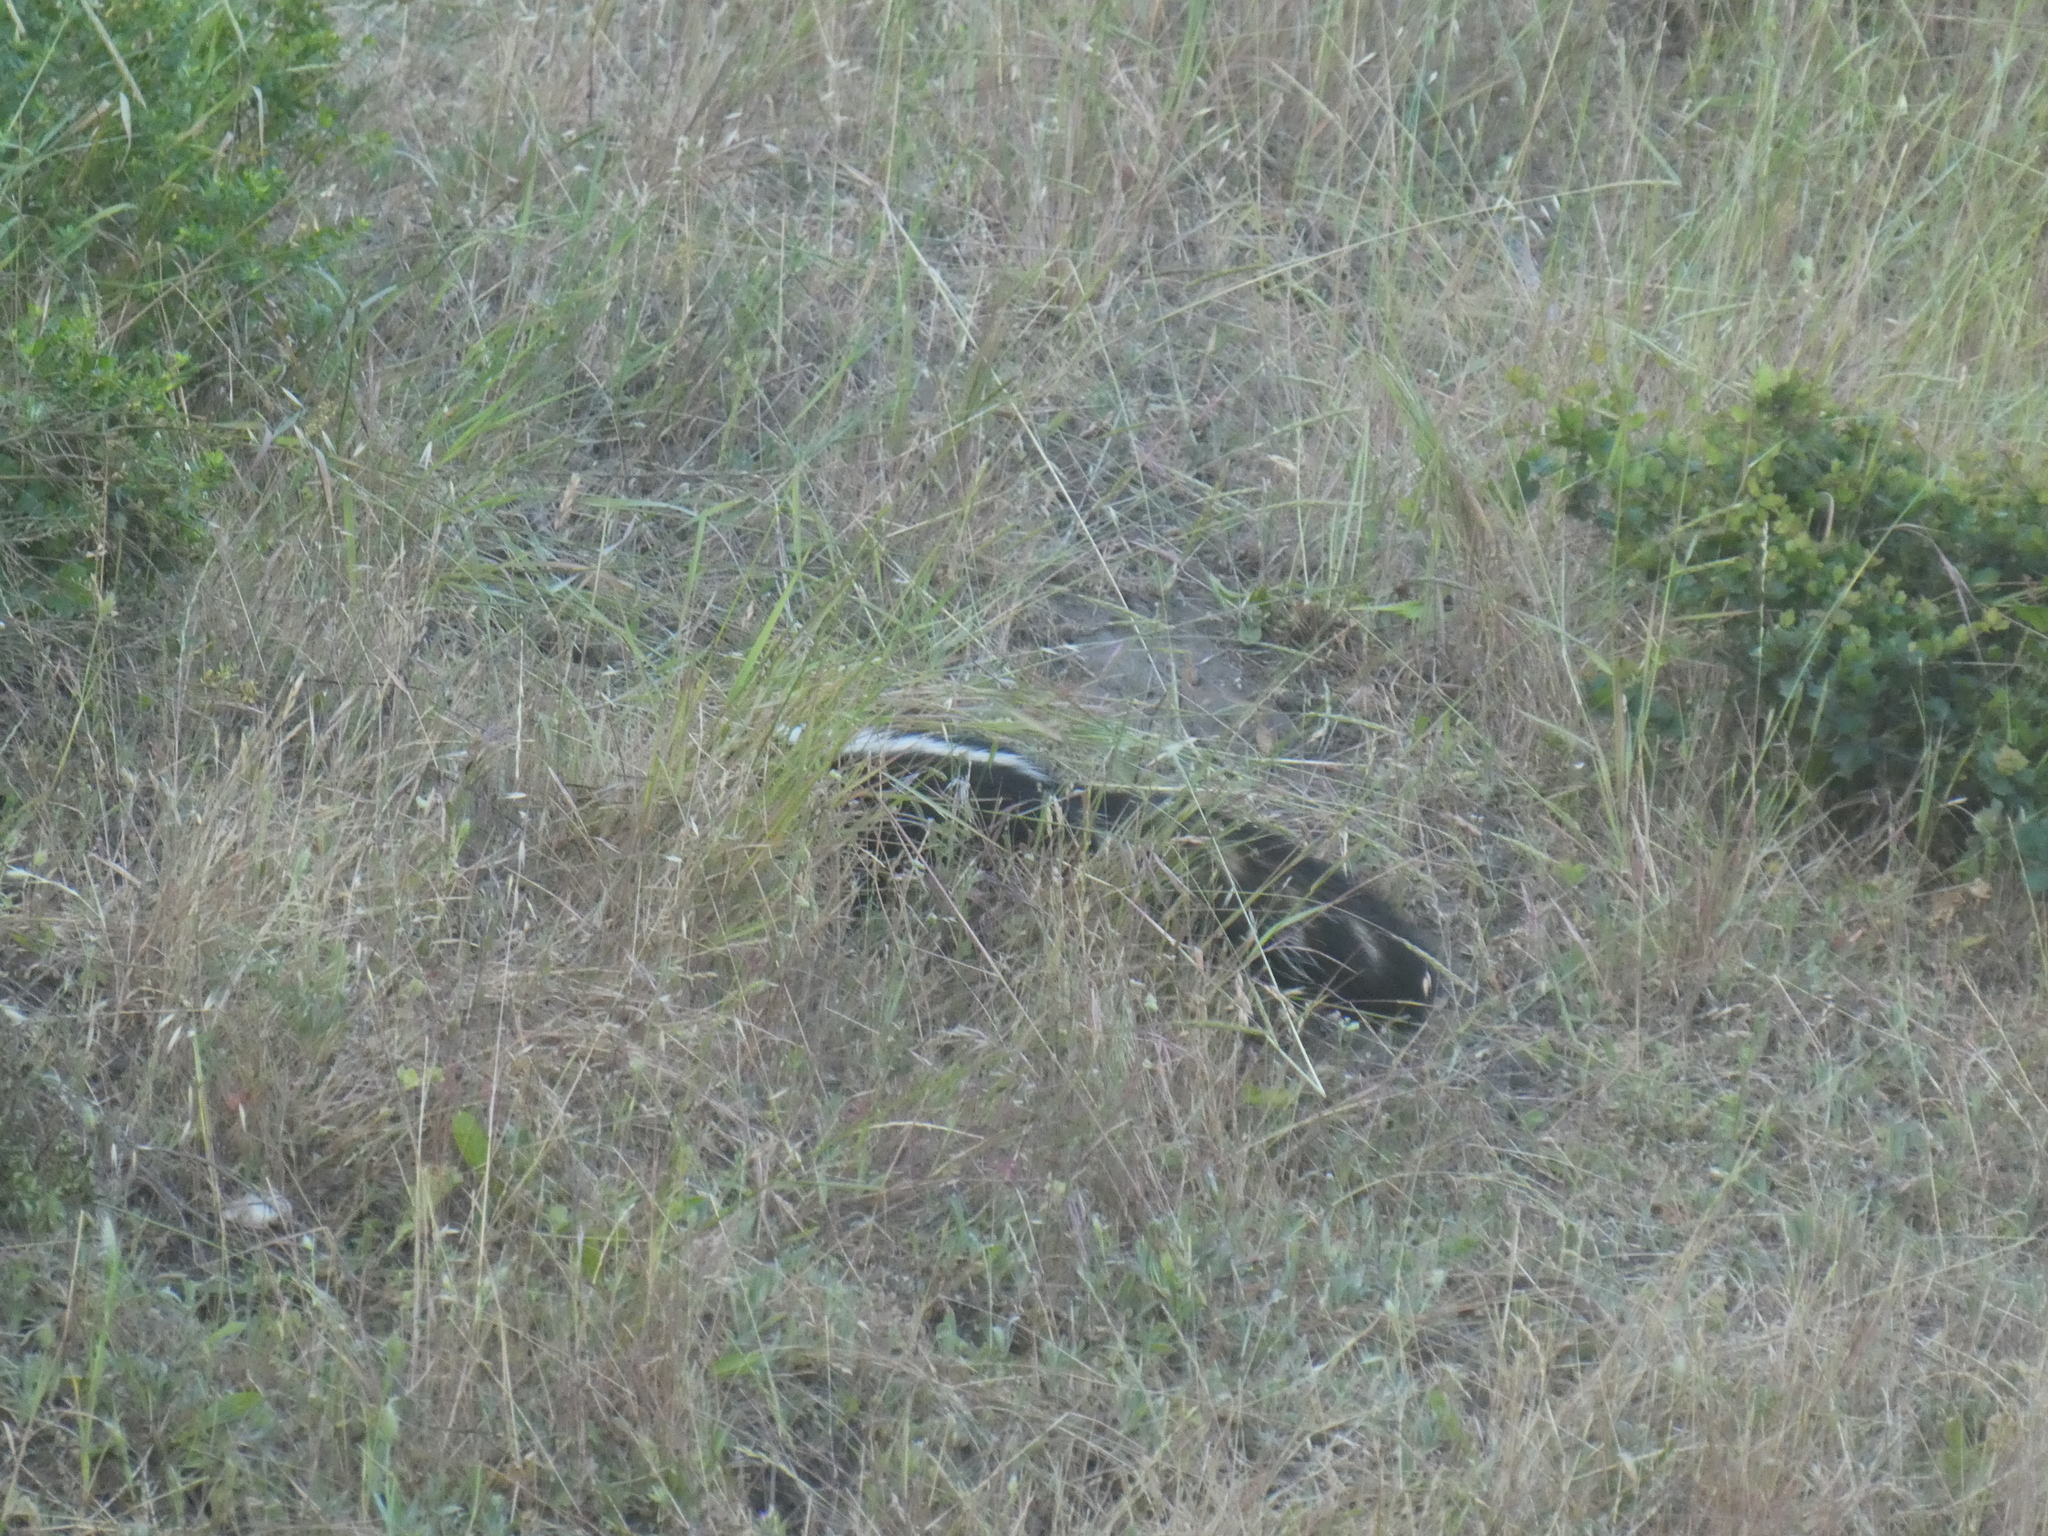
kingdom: Animalia
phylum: Chordata
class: Mammalia
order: Carnivora
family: Mephitidae
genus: Mephitis
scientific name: Mephitis mephitis
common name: Striped skunk
